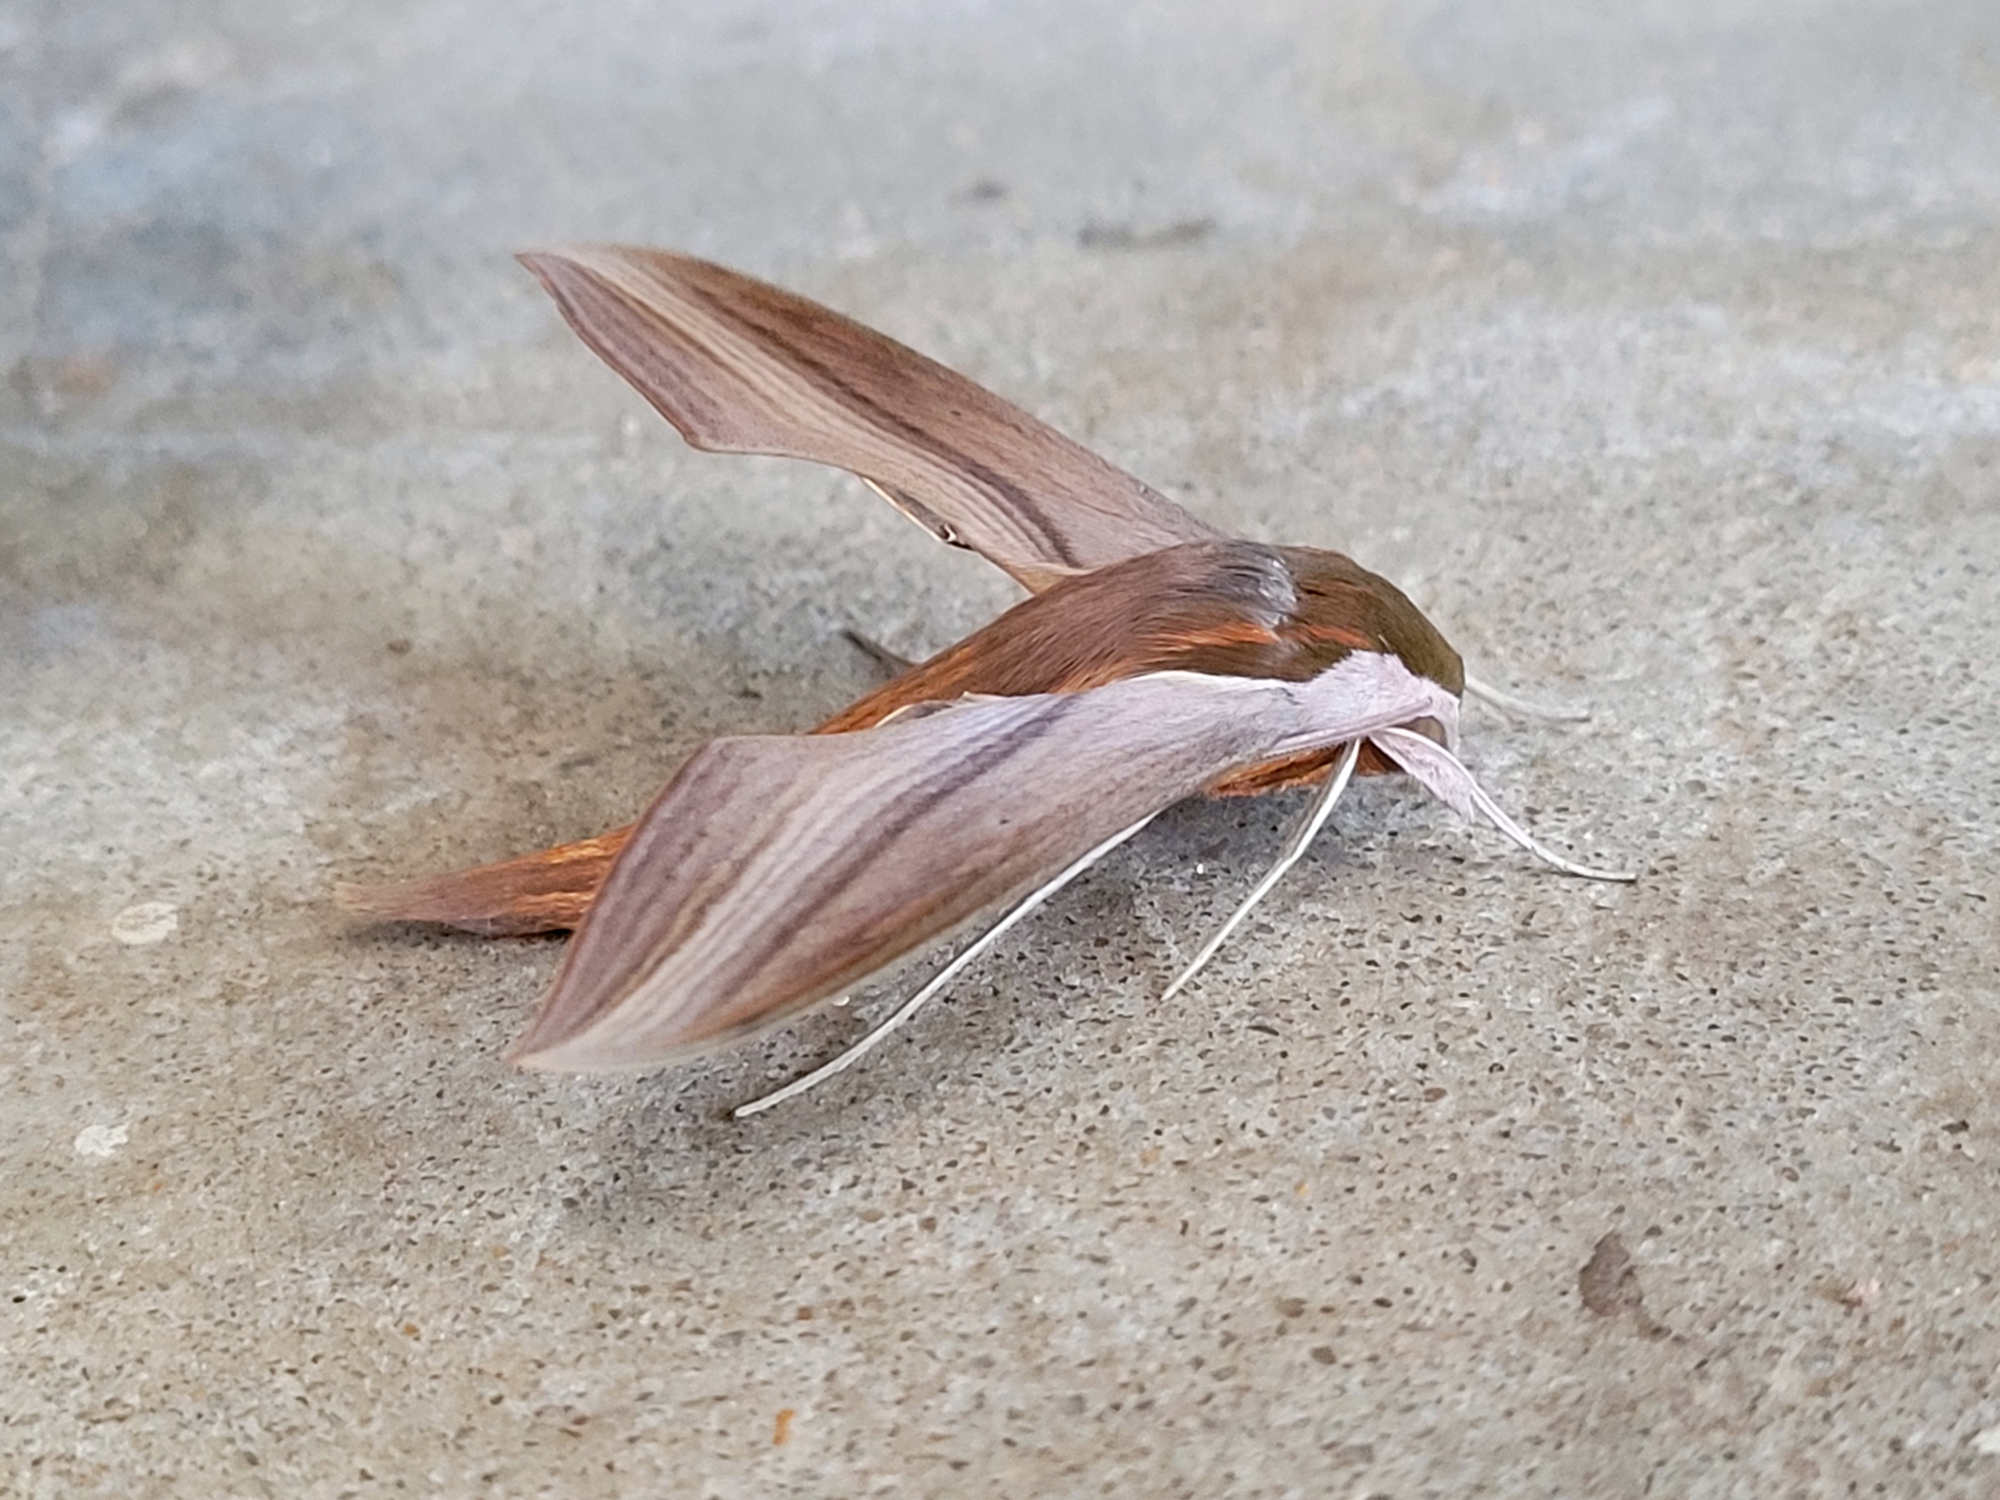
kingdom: Animalia
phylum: Arthropoda
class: Insecta
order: Lepidoptera
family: Sphingidae
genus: Xylophanes
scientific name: Xylophanes tersa
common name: Tersa sphinx
